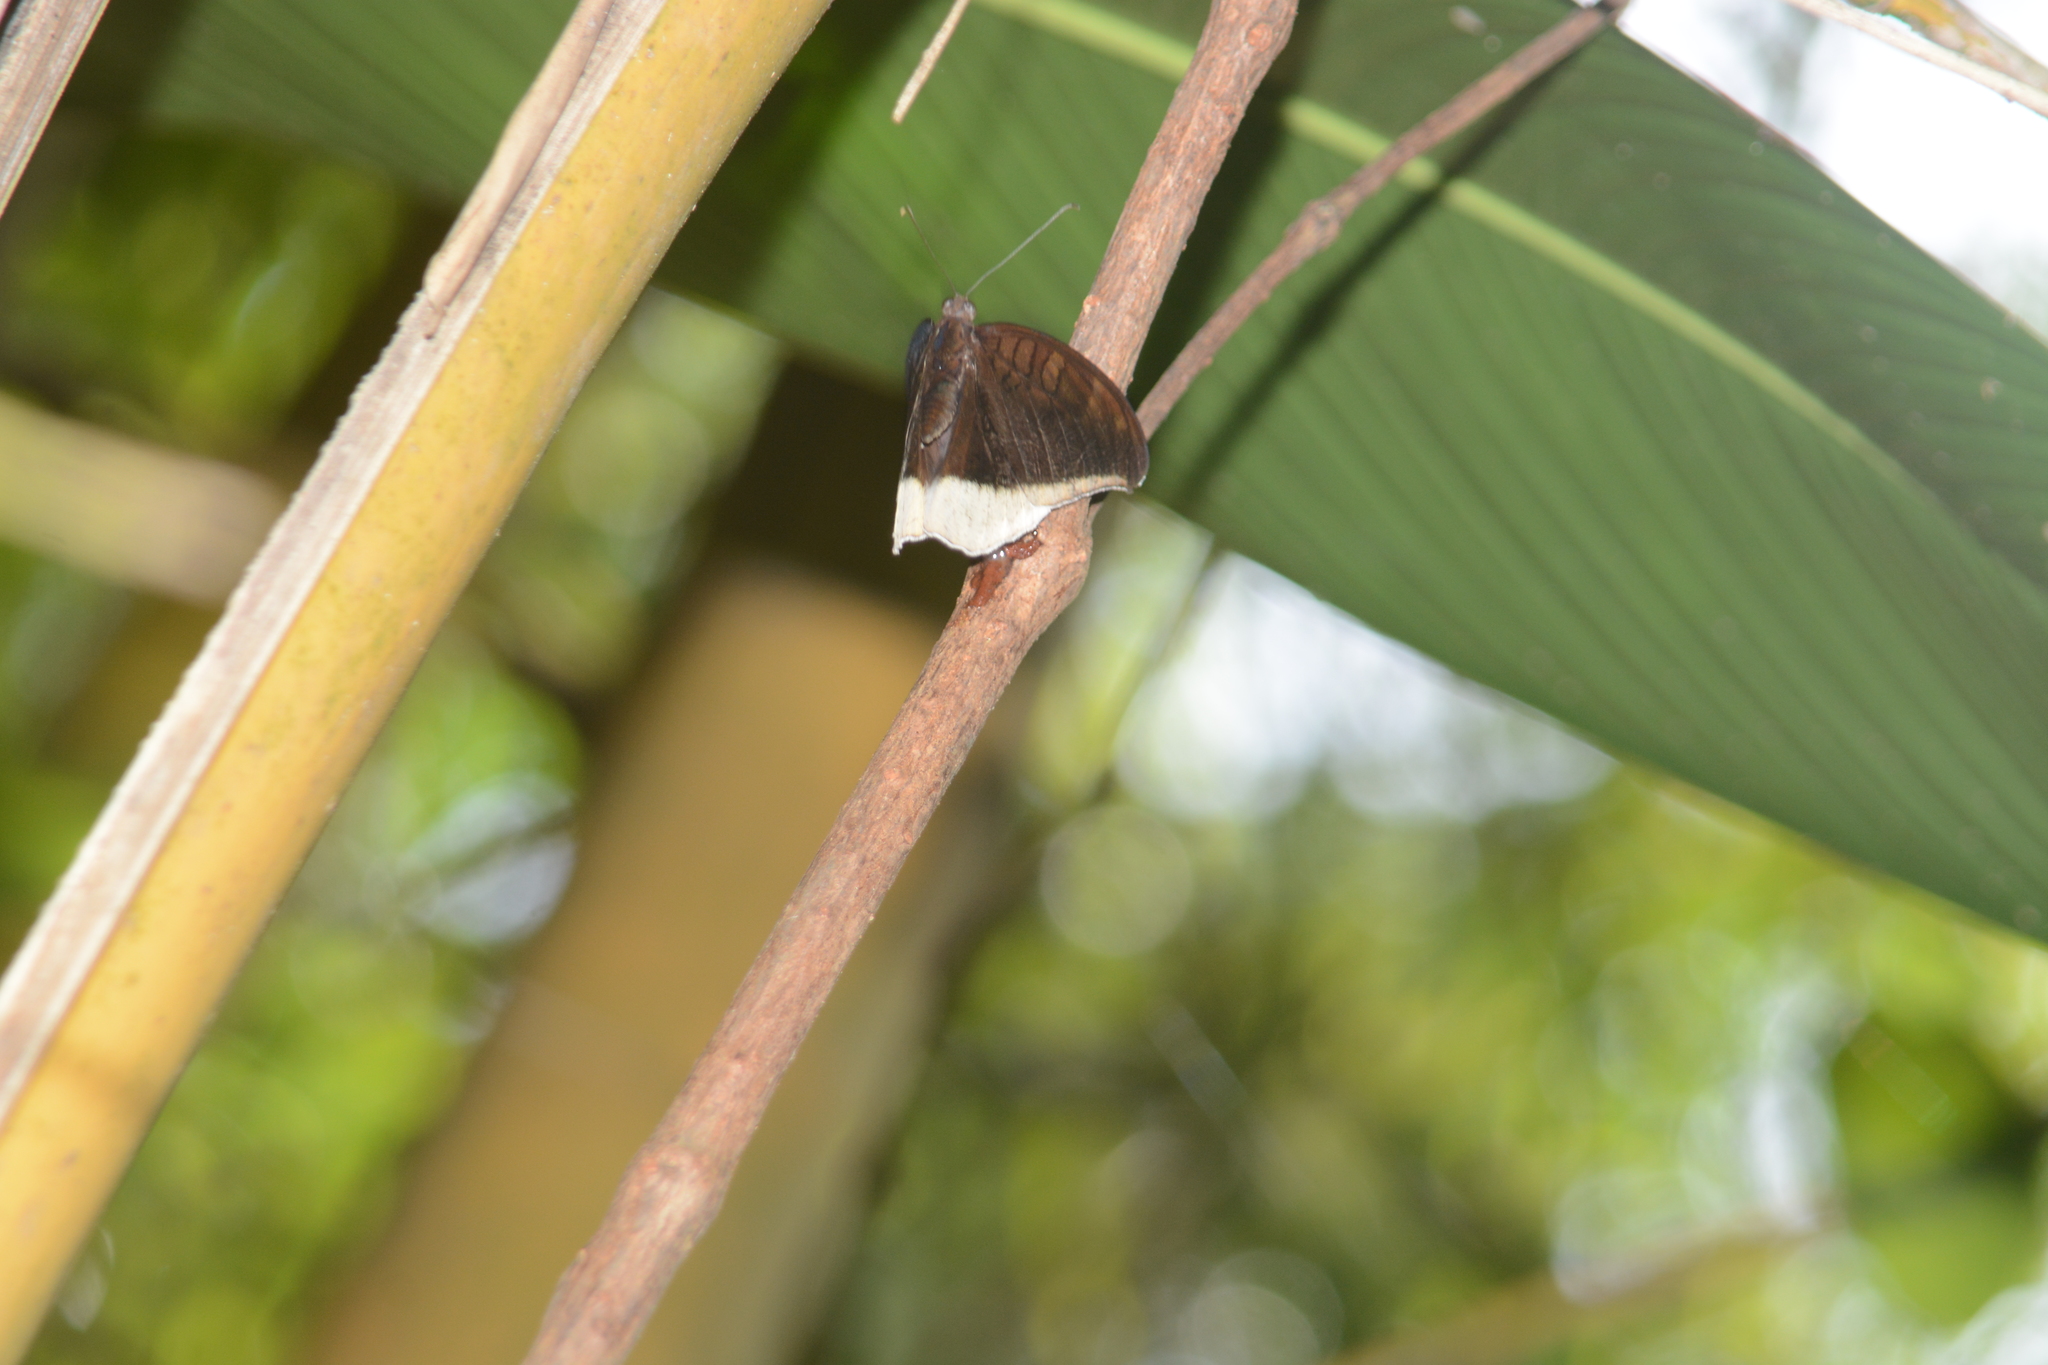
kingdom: Animalia
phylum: Arthropoda
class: Insecta
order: Lepidoptera
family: Nymphalidae
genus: Tanaecia
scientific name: Tanaecia lepidea
